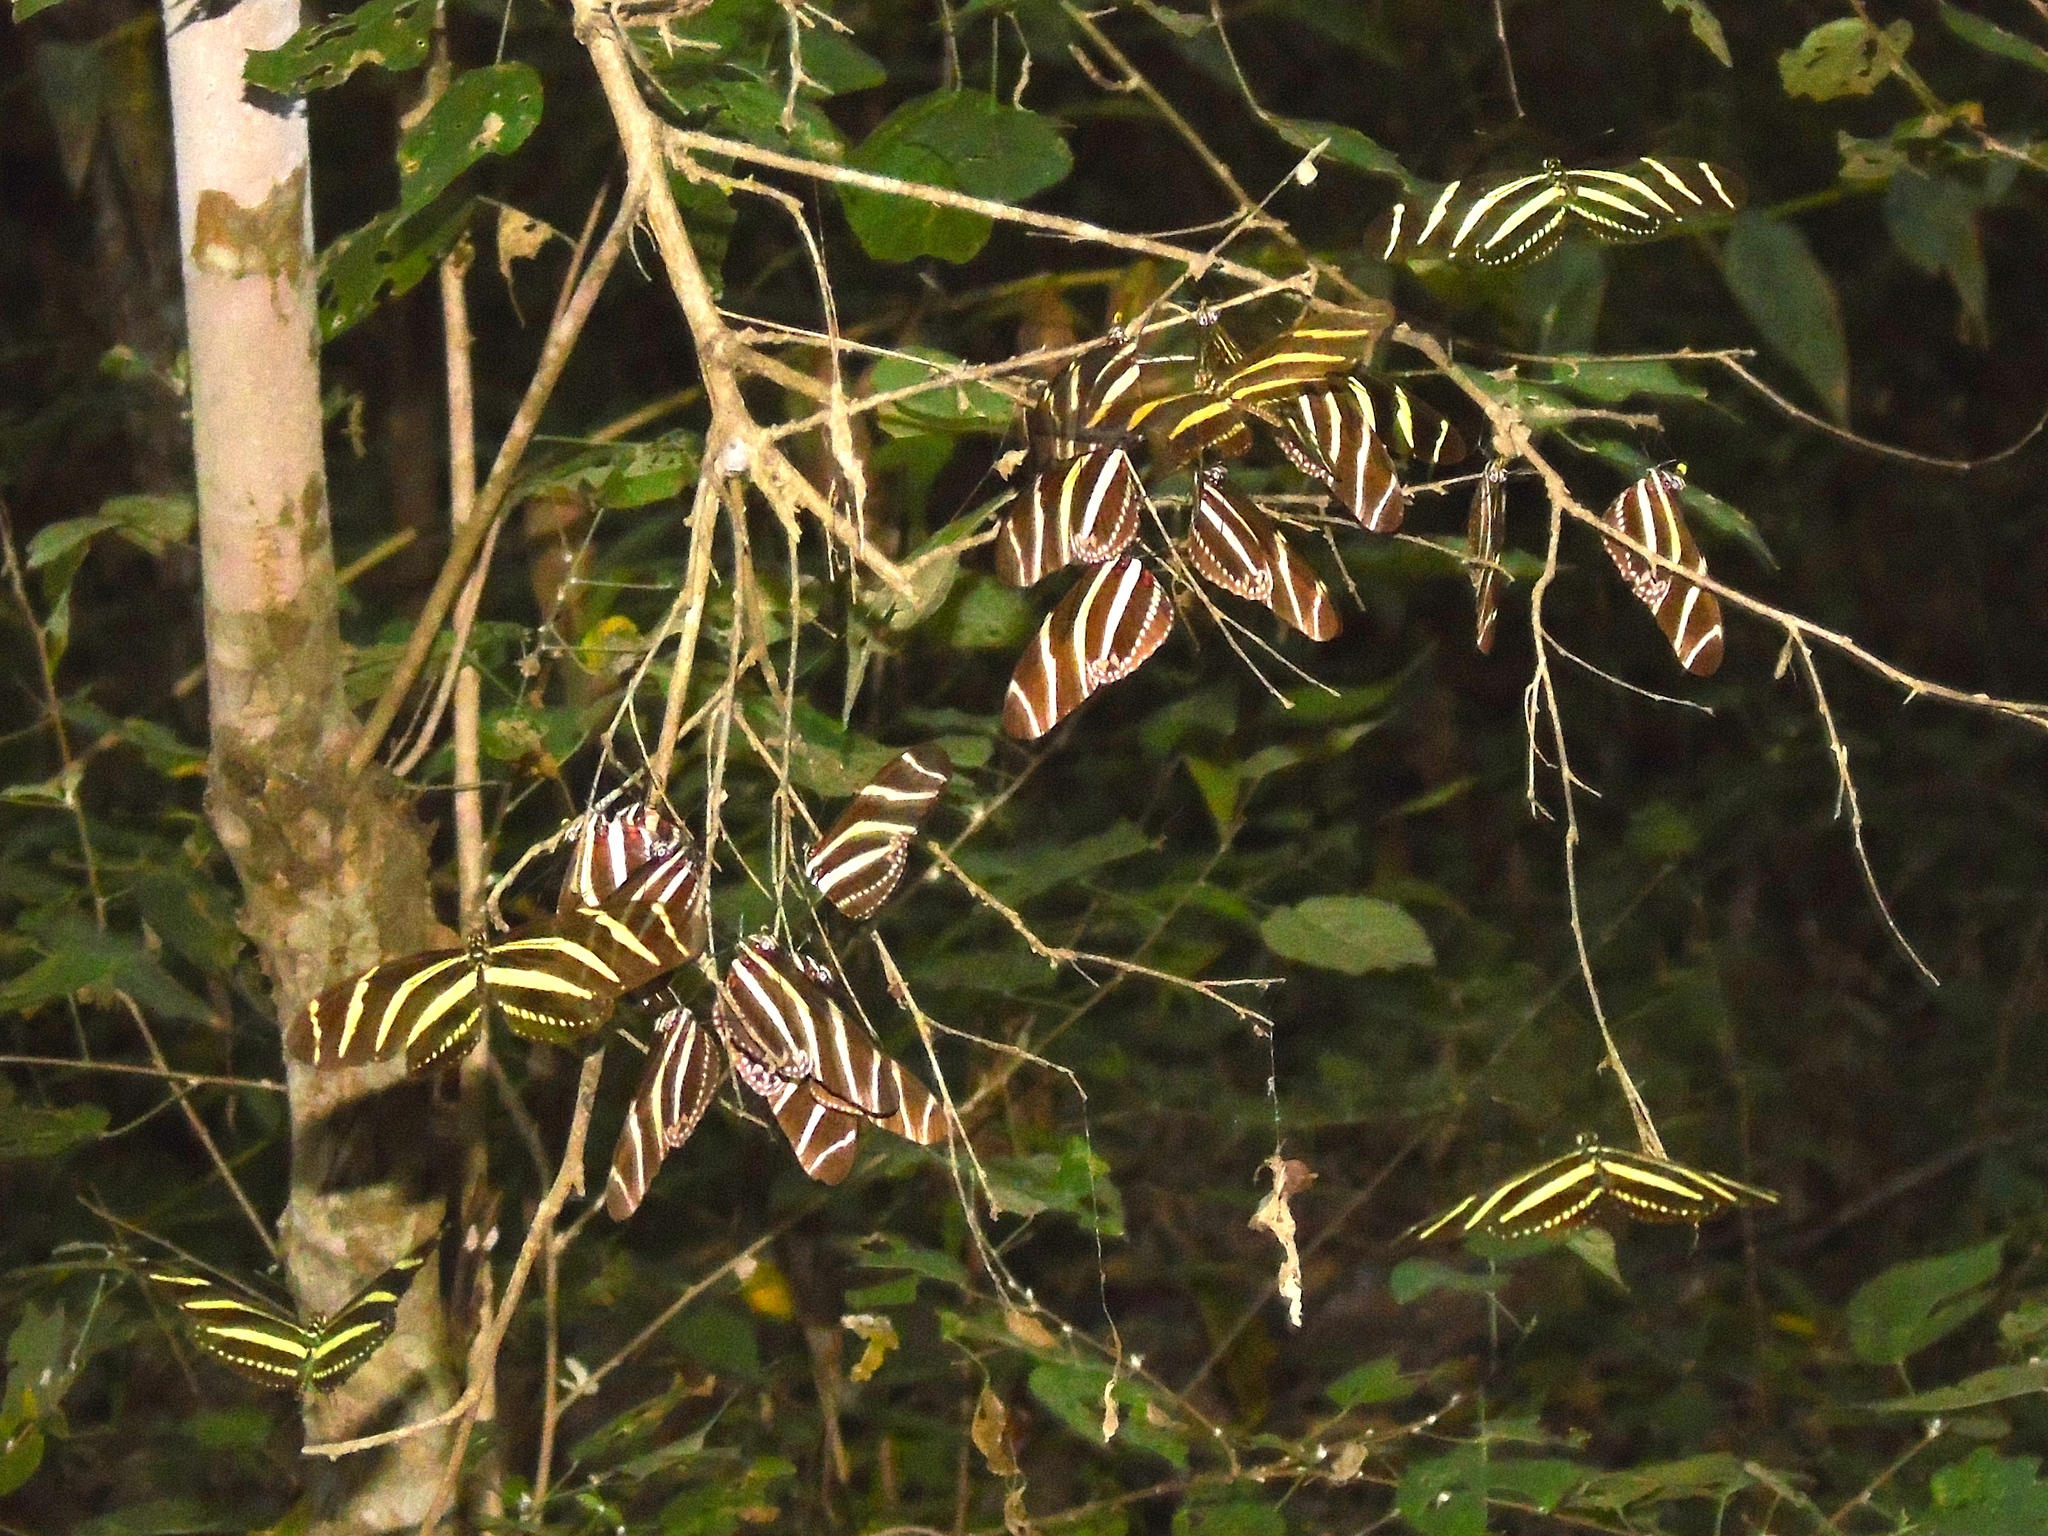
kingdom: Animalia
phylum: Arthropoda
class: Insecta
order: Lepidoptera
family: Nymphalidae
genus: Heliconius
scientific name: Heliconius charithonia
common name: Zebra long wing
